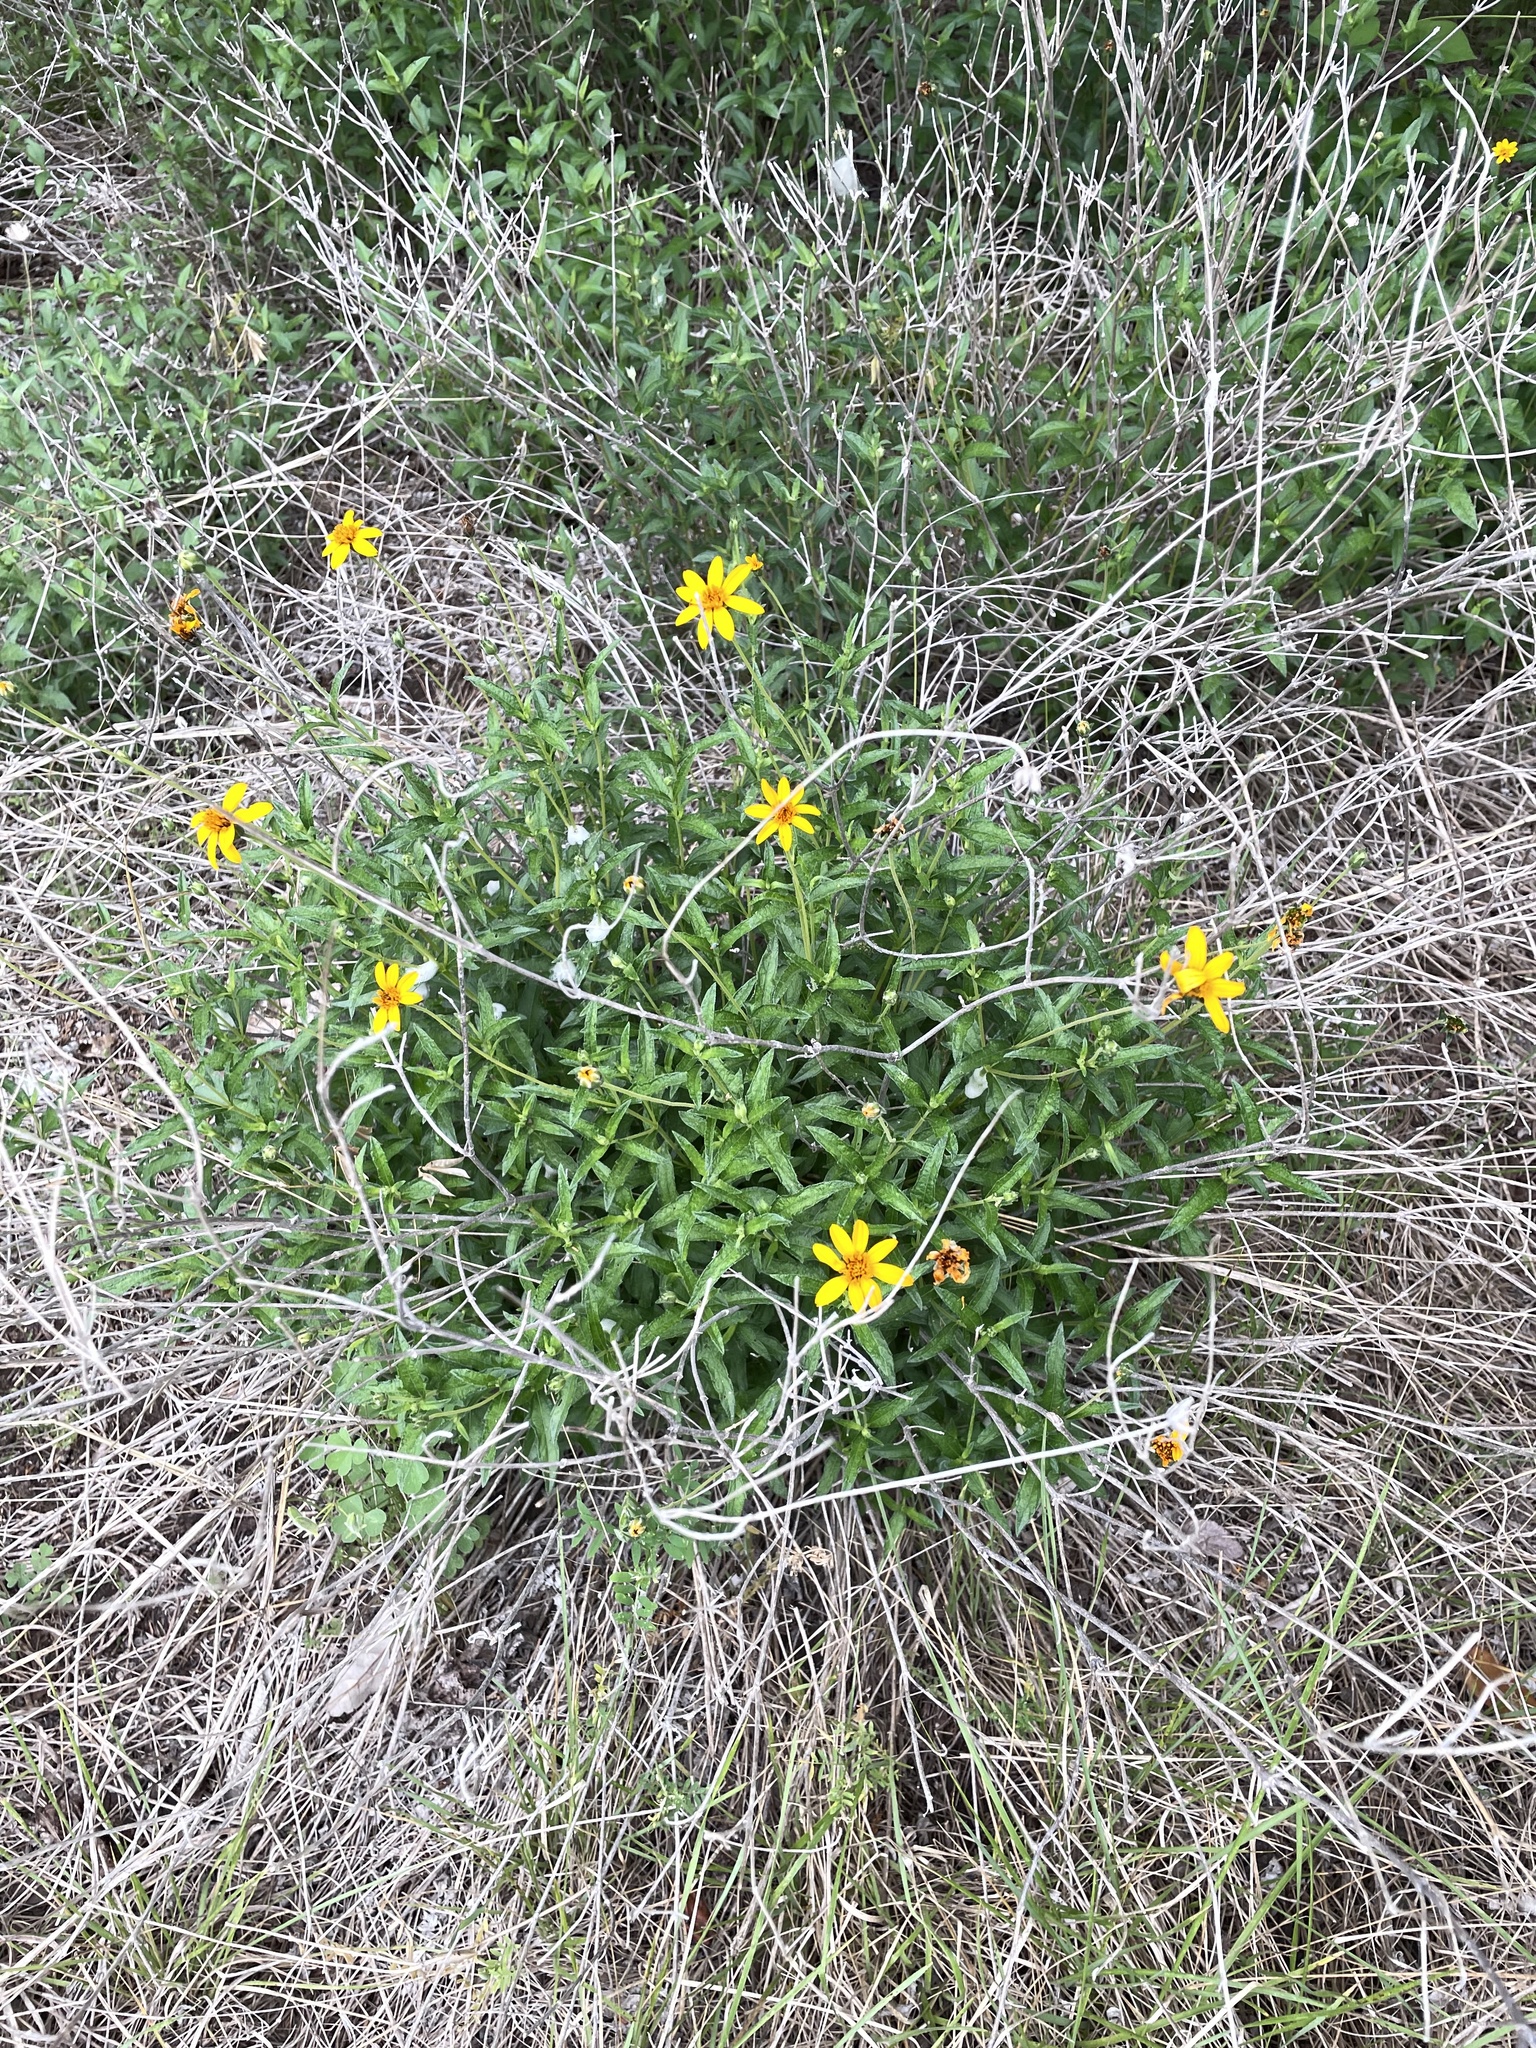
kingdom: Plantae
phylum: Tracheophyta
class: Magnoliopsida
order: Asterales
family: Asteraceae
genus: Wedelia
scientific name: Wedelia acapulcensis
